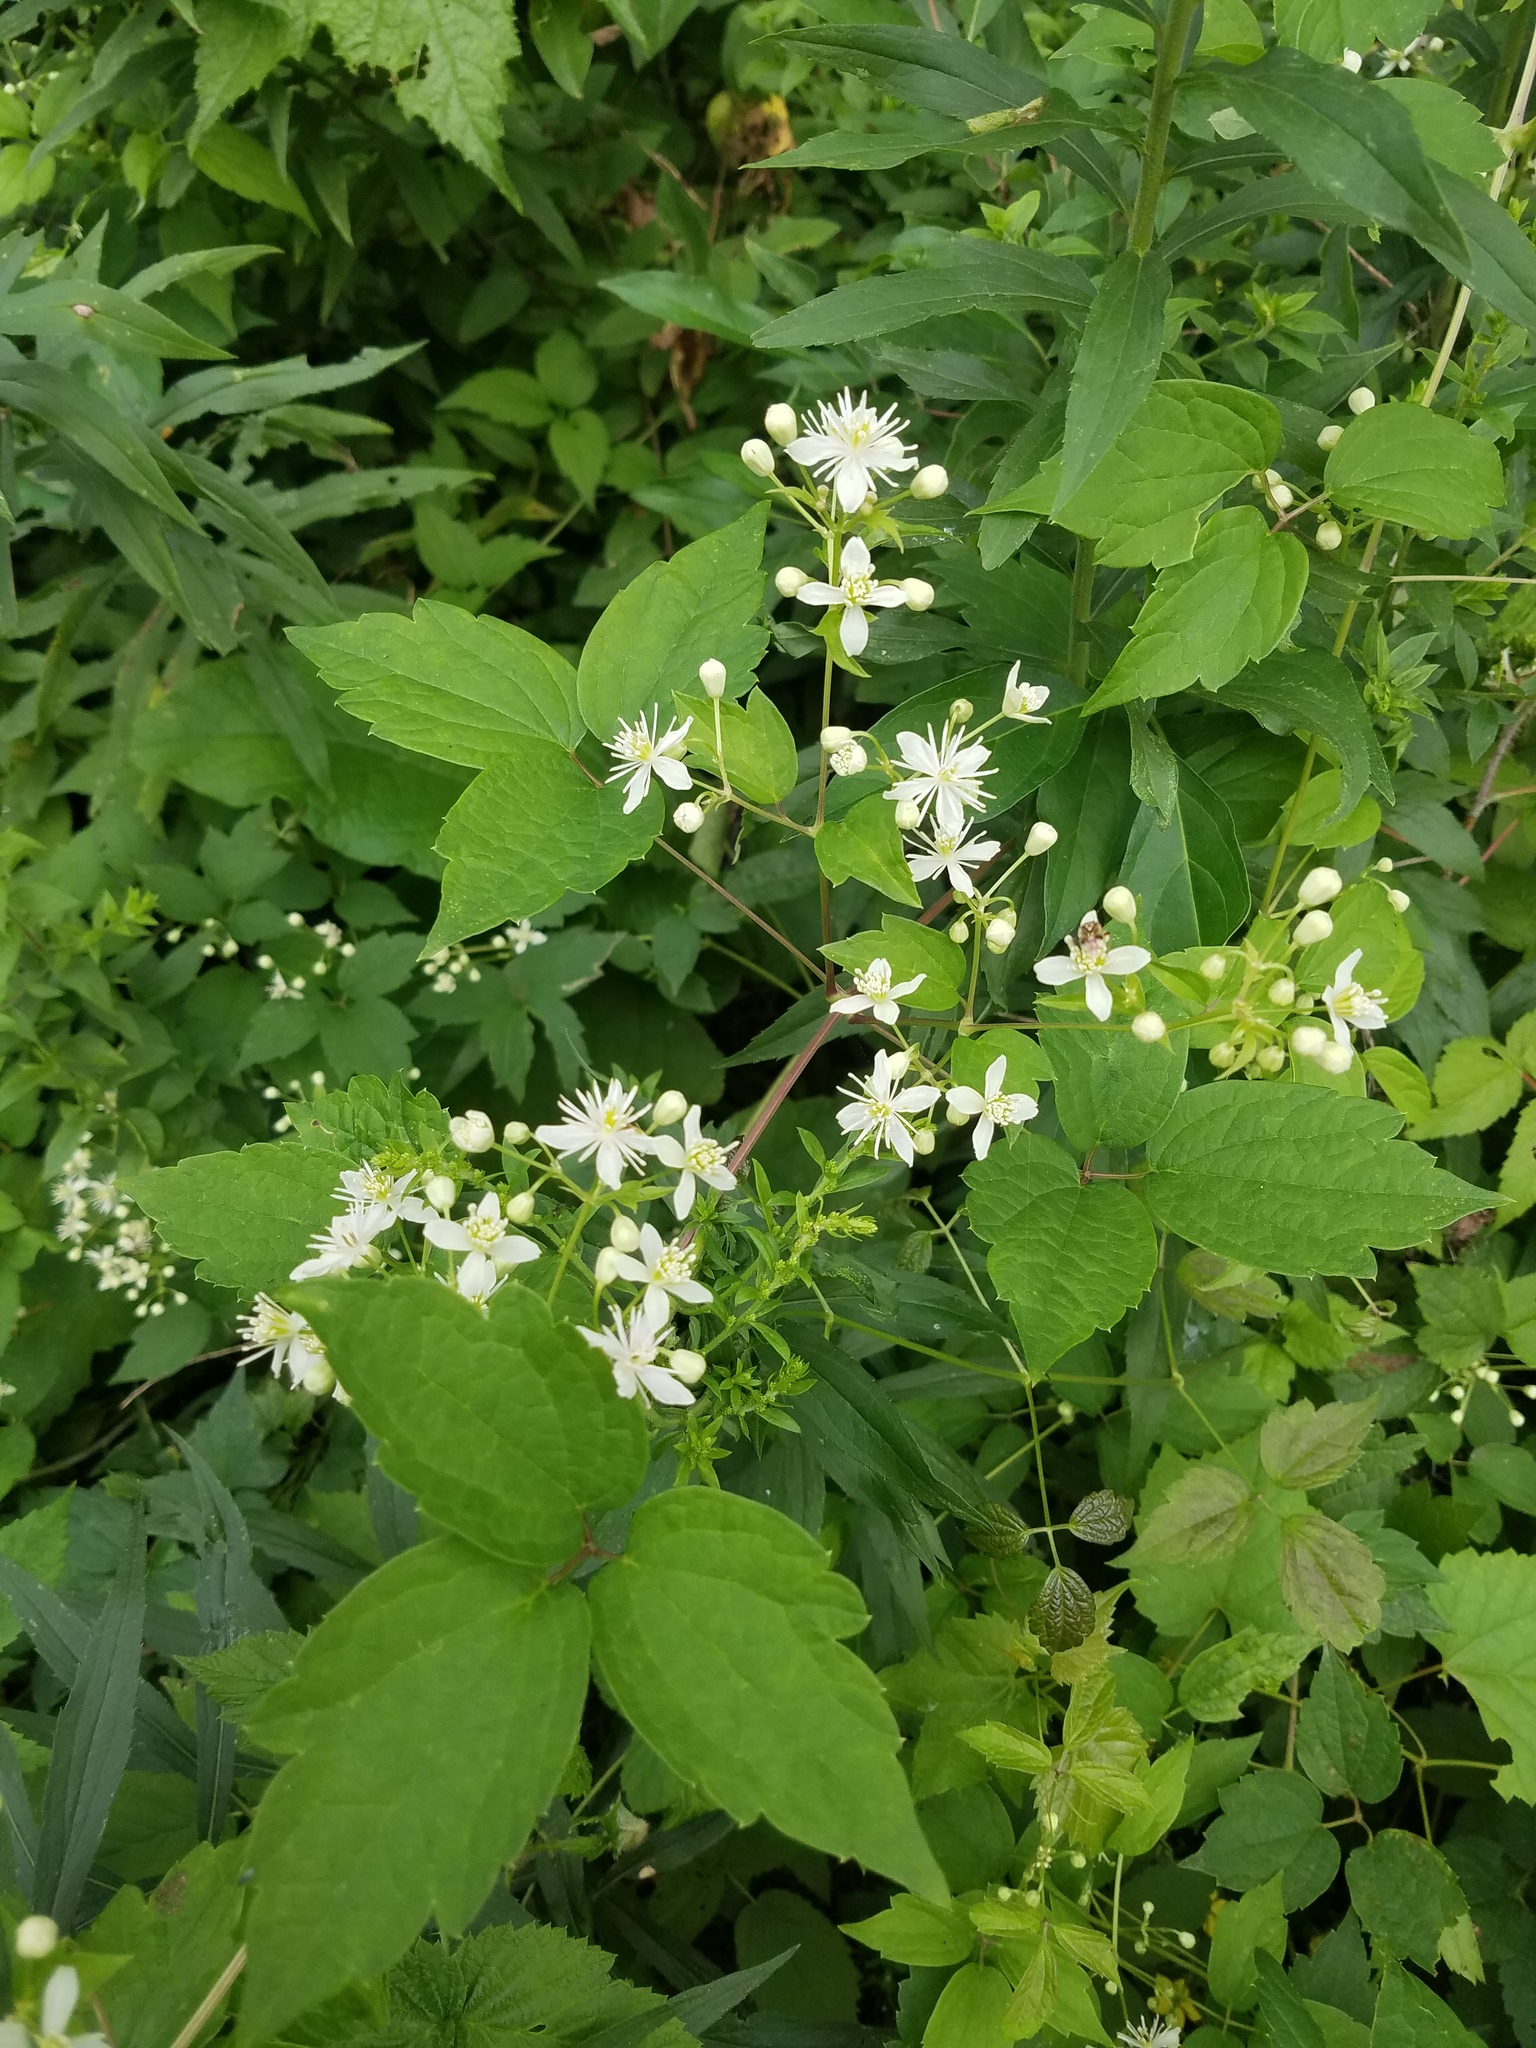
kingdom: Plantae
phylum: Tracheophyta
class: Magnoliopsida
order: Ranunculales
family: Ranunculaceae
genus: Clematis
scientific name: Clematis virginiana
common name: Virgin's-bower
